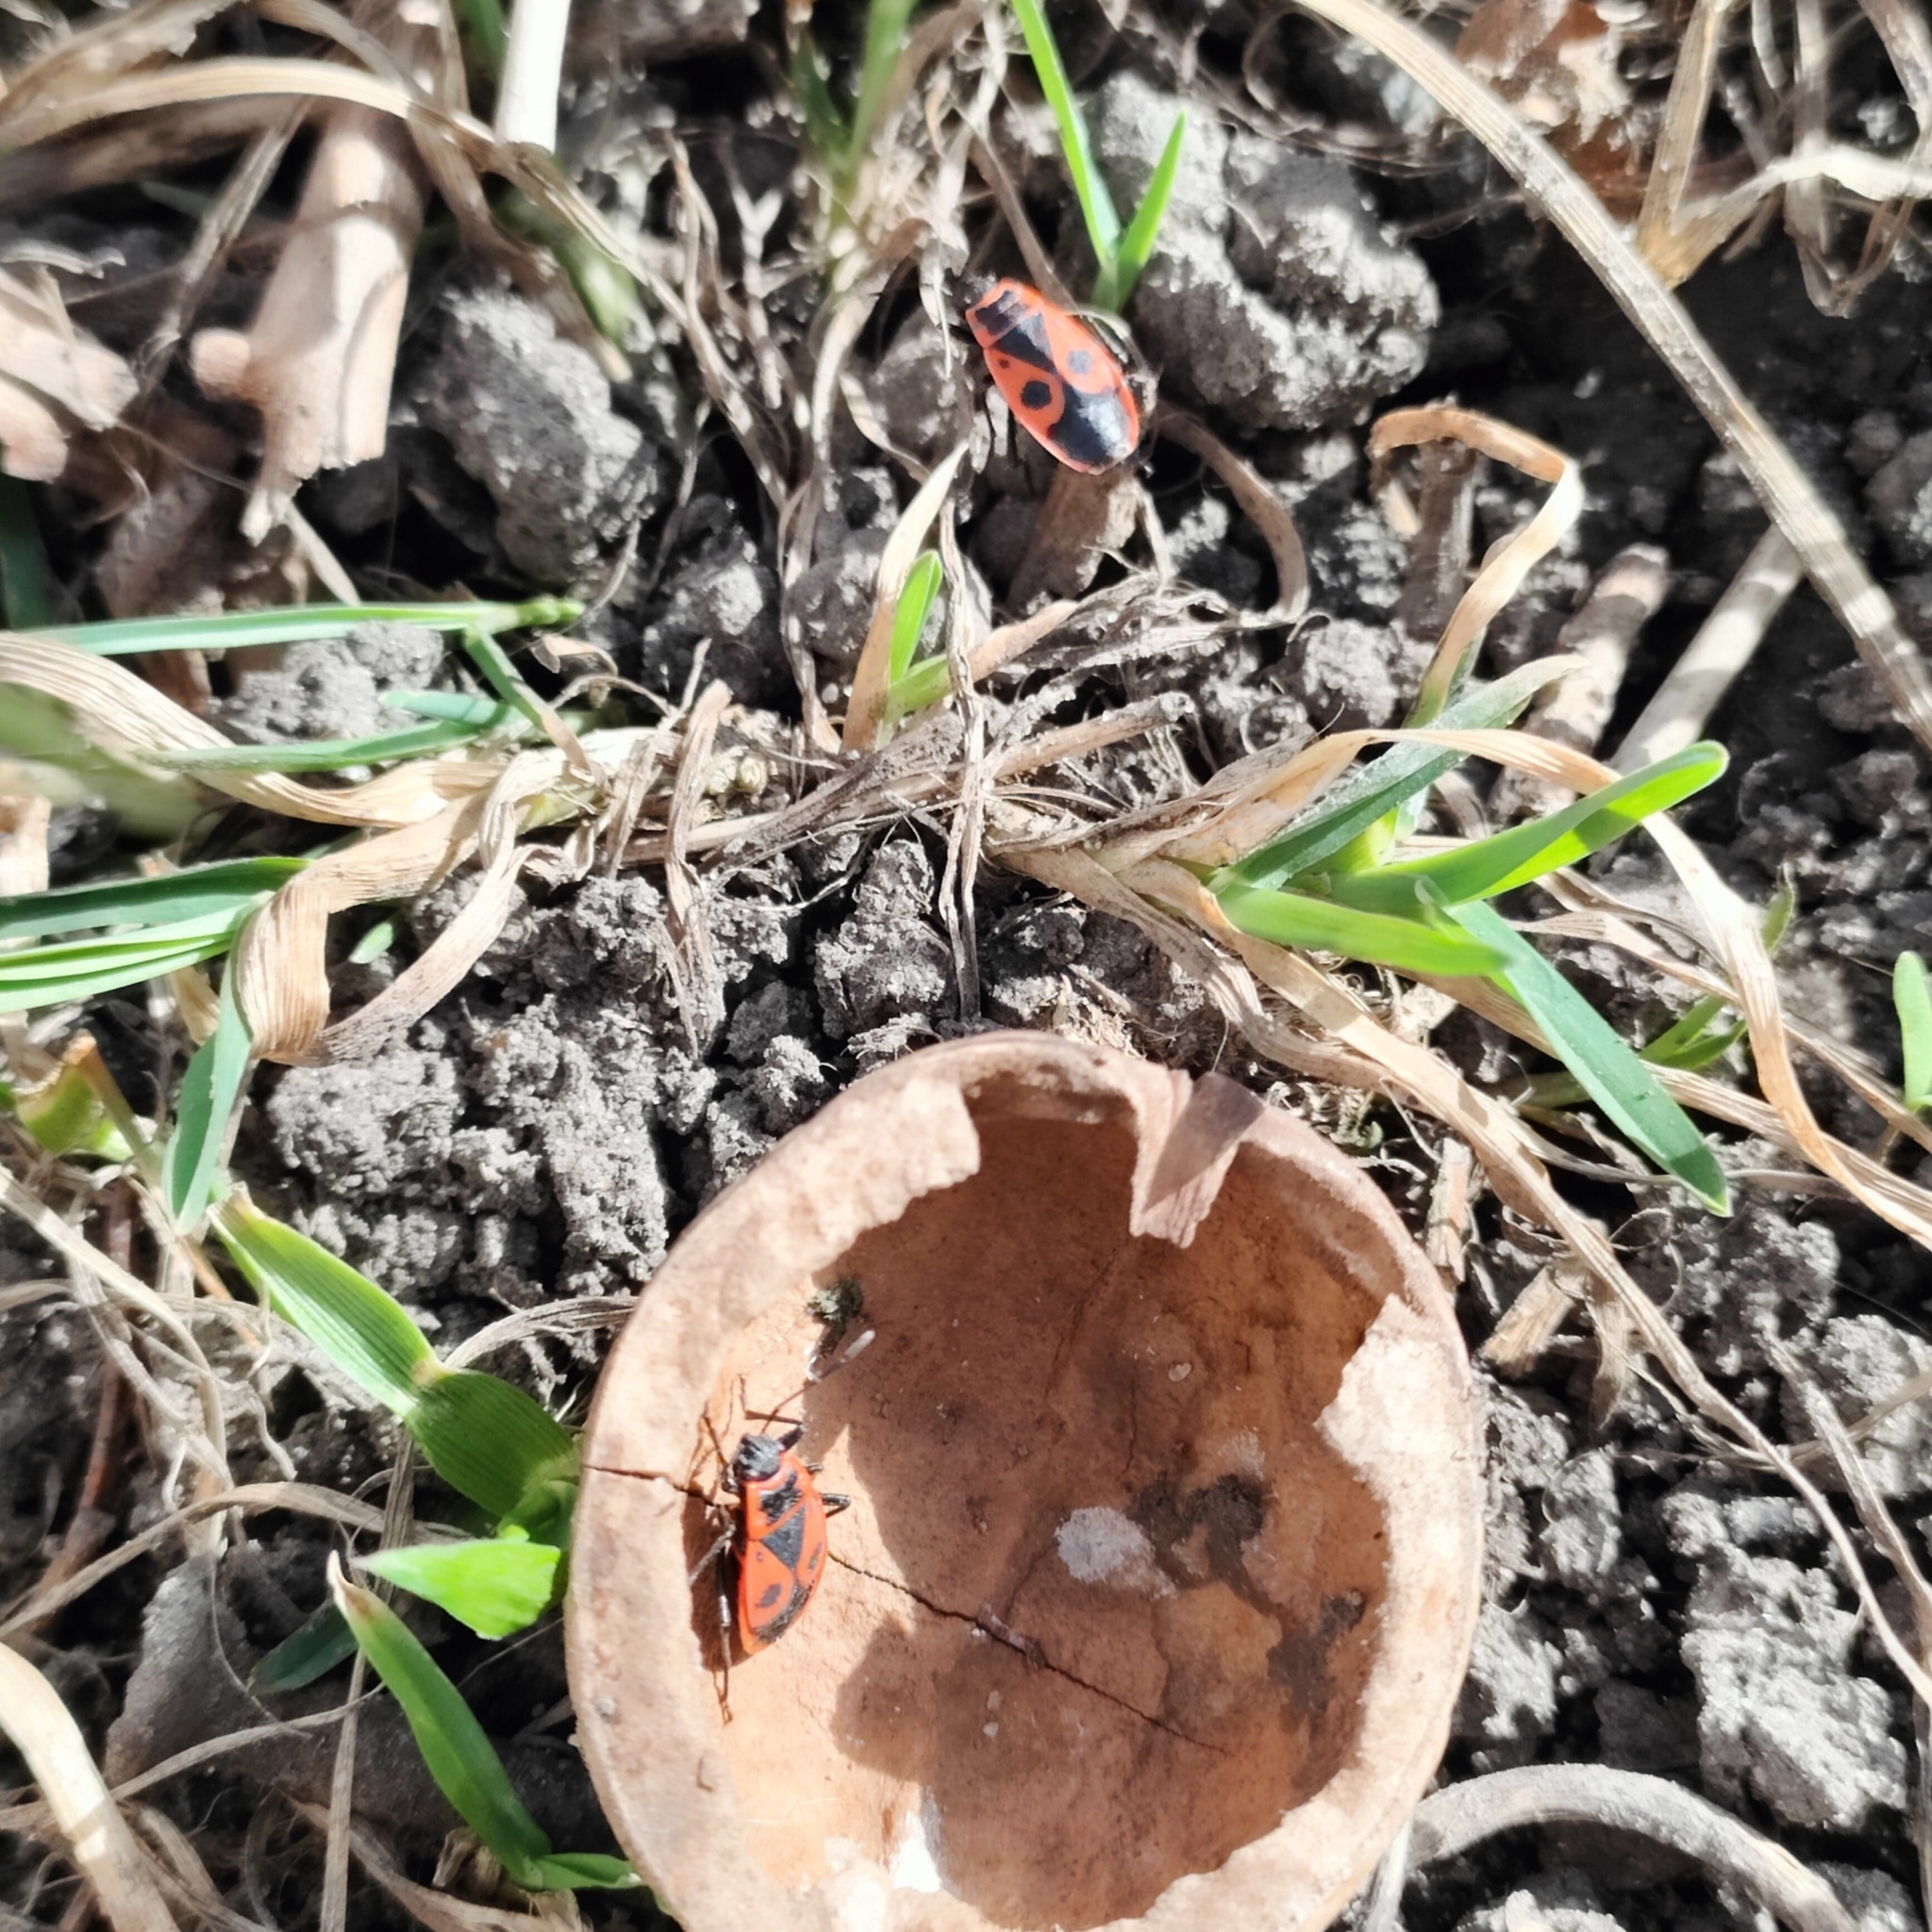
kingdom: Animalia
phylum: Arthropoda
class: Insecta
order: Hemiptera
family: Pyrrhocoridae
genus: Pyrrhocoris
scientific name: Pyrrhocoris apterus
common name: Firebug
